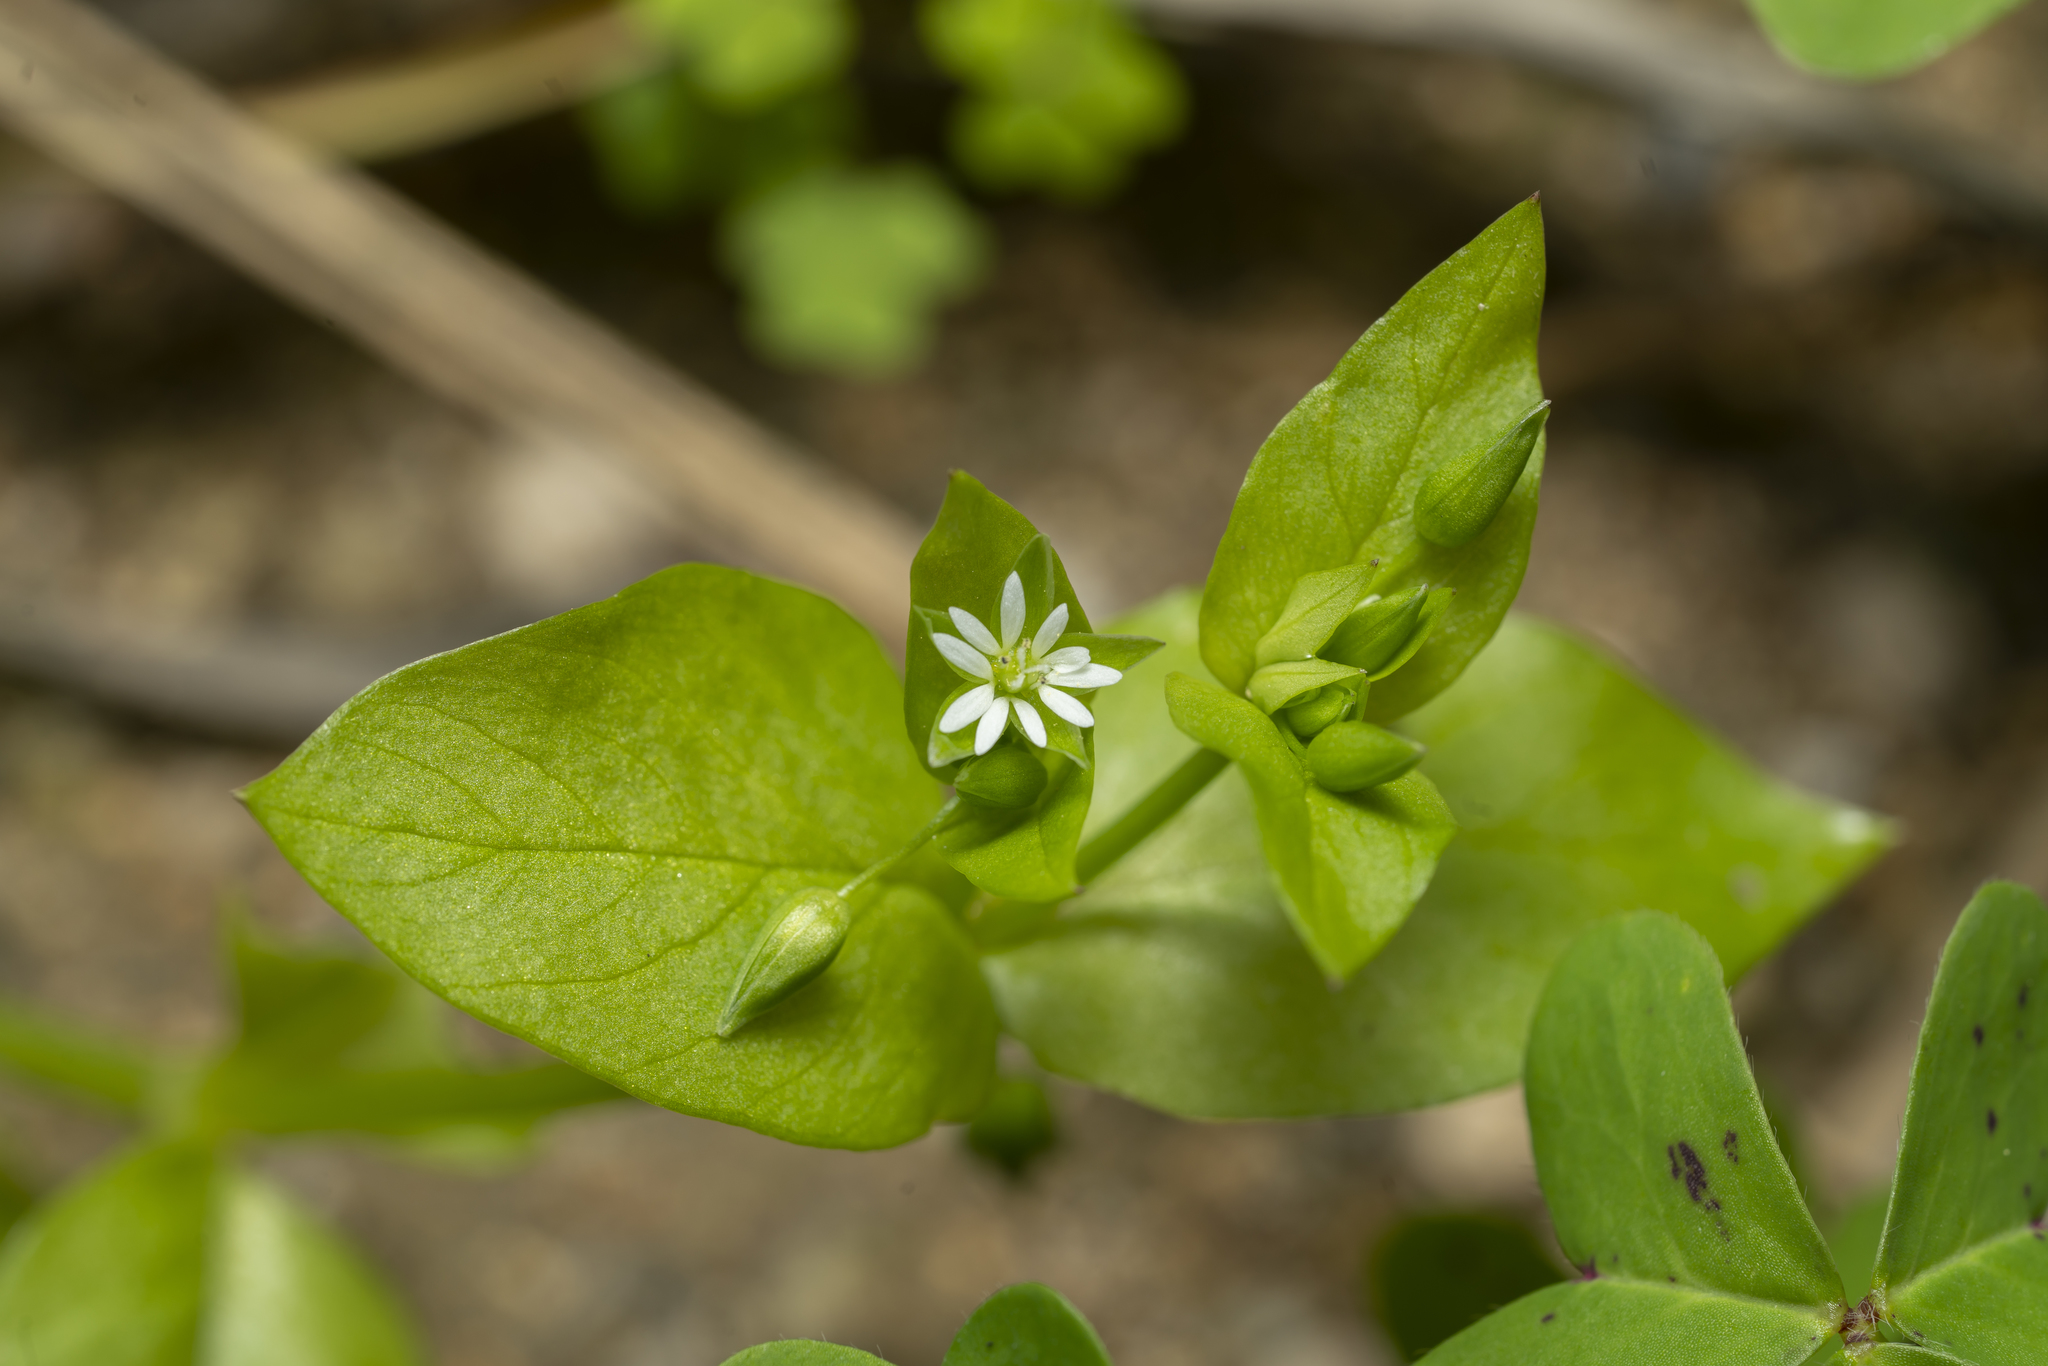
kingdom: Plantae
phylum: Tracheophyta
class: Magnoliopsida
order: Caryophyllales
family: Caryophyllaceae
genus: Stellaria
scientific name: Stellaria media
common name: Common chickweed
